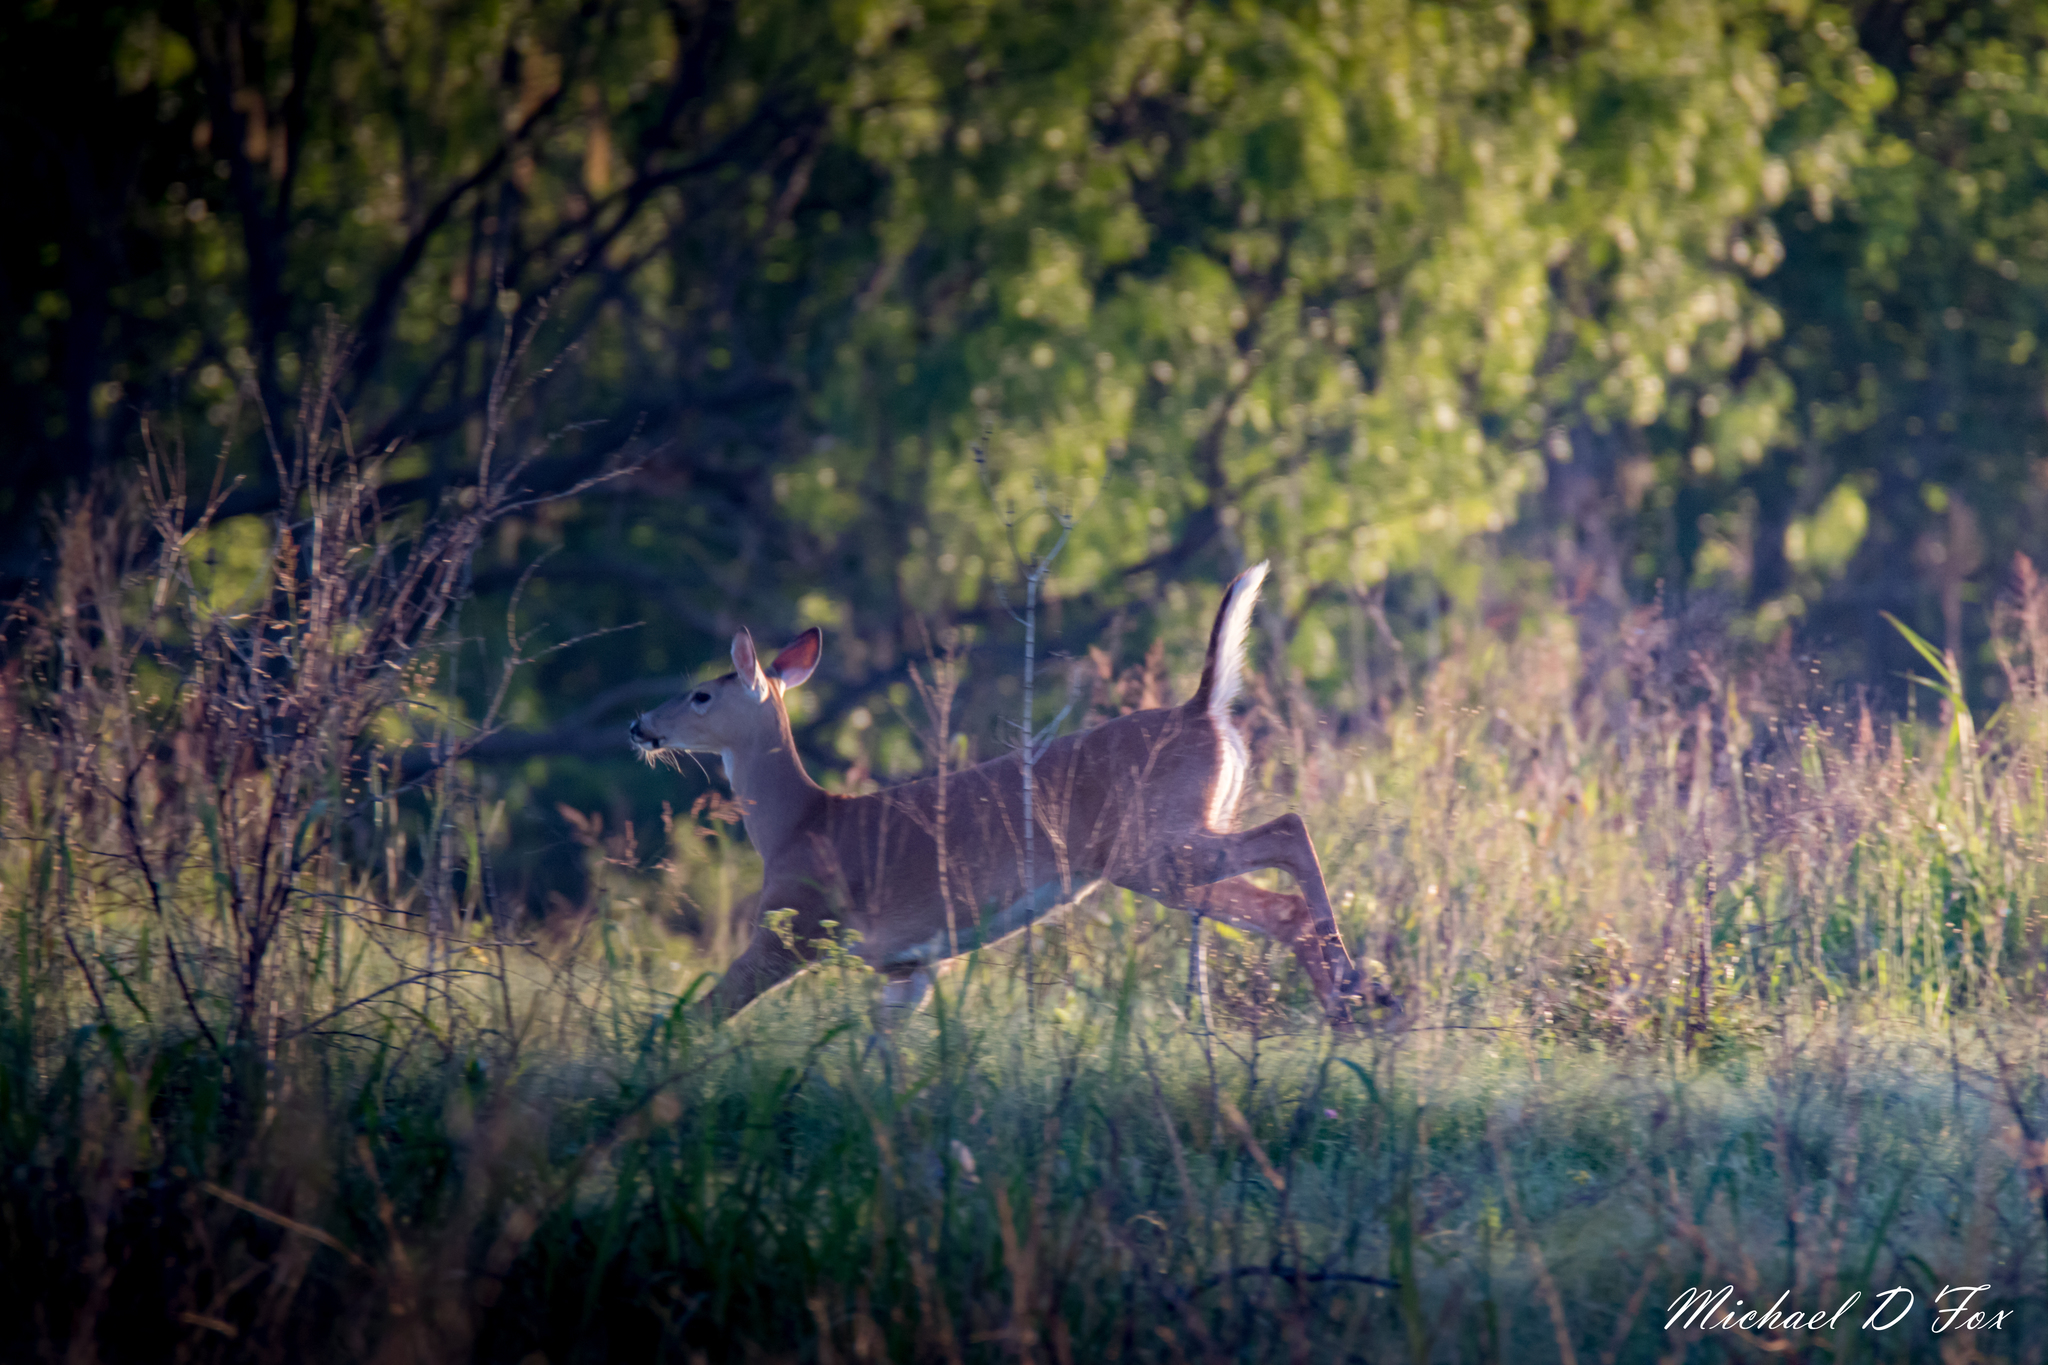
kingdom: Animalia
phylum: Chordata
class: Mammalia
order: Artiodactyla
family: Cervidae
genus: Odocoileus
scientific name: Odocoileus virginianus
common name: White-tailed deer
